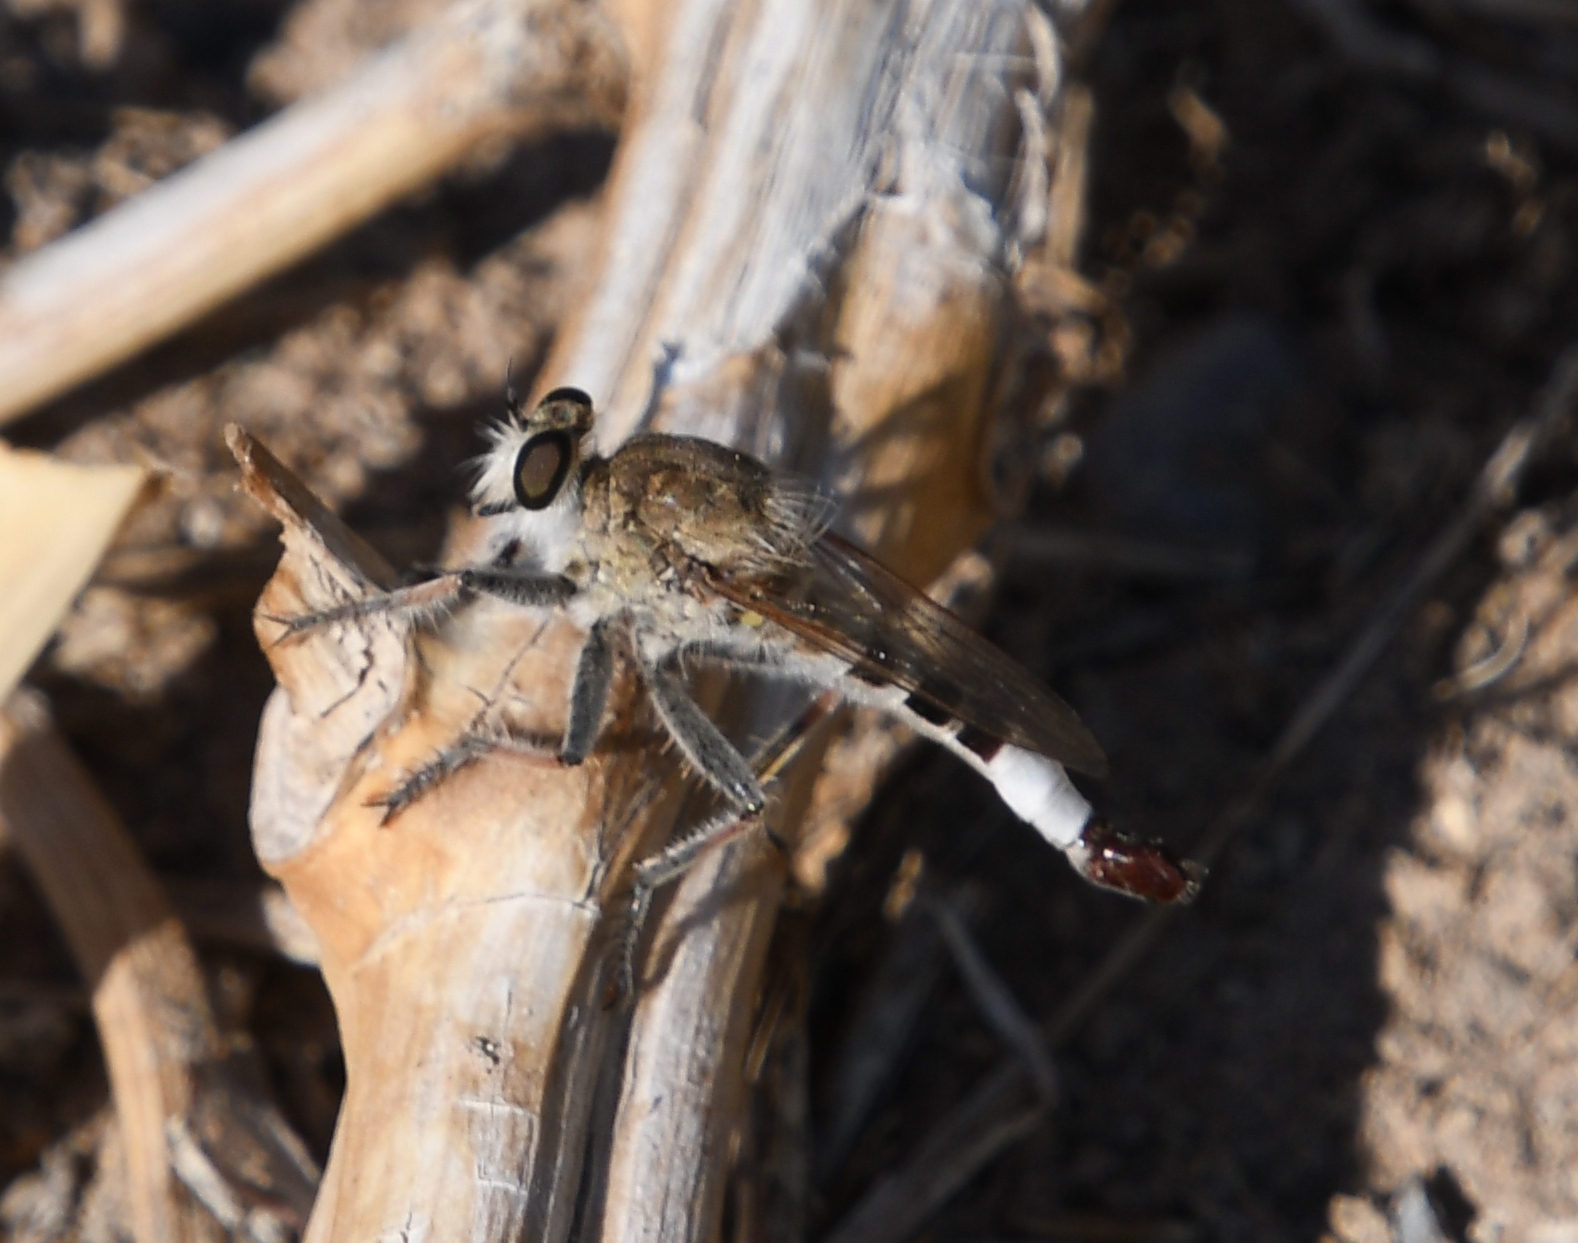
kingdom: Animalia
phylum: Arthropoda
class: Insecta
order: Diptera
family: Asilidae
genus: Efferia
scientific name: Efferia albibarbis
